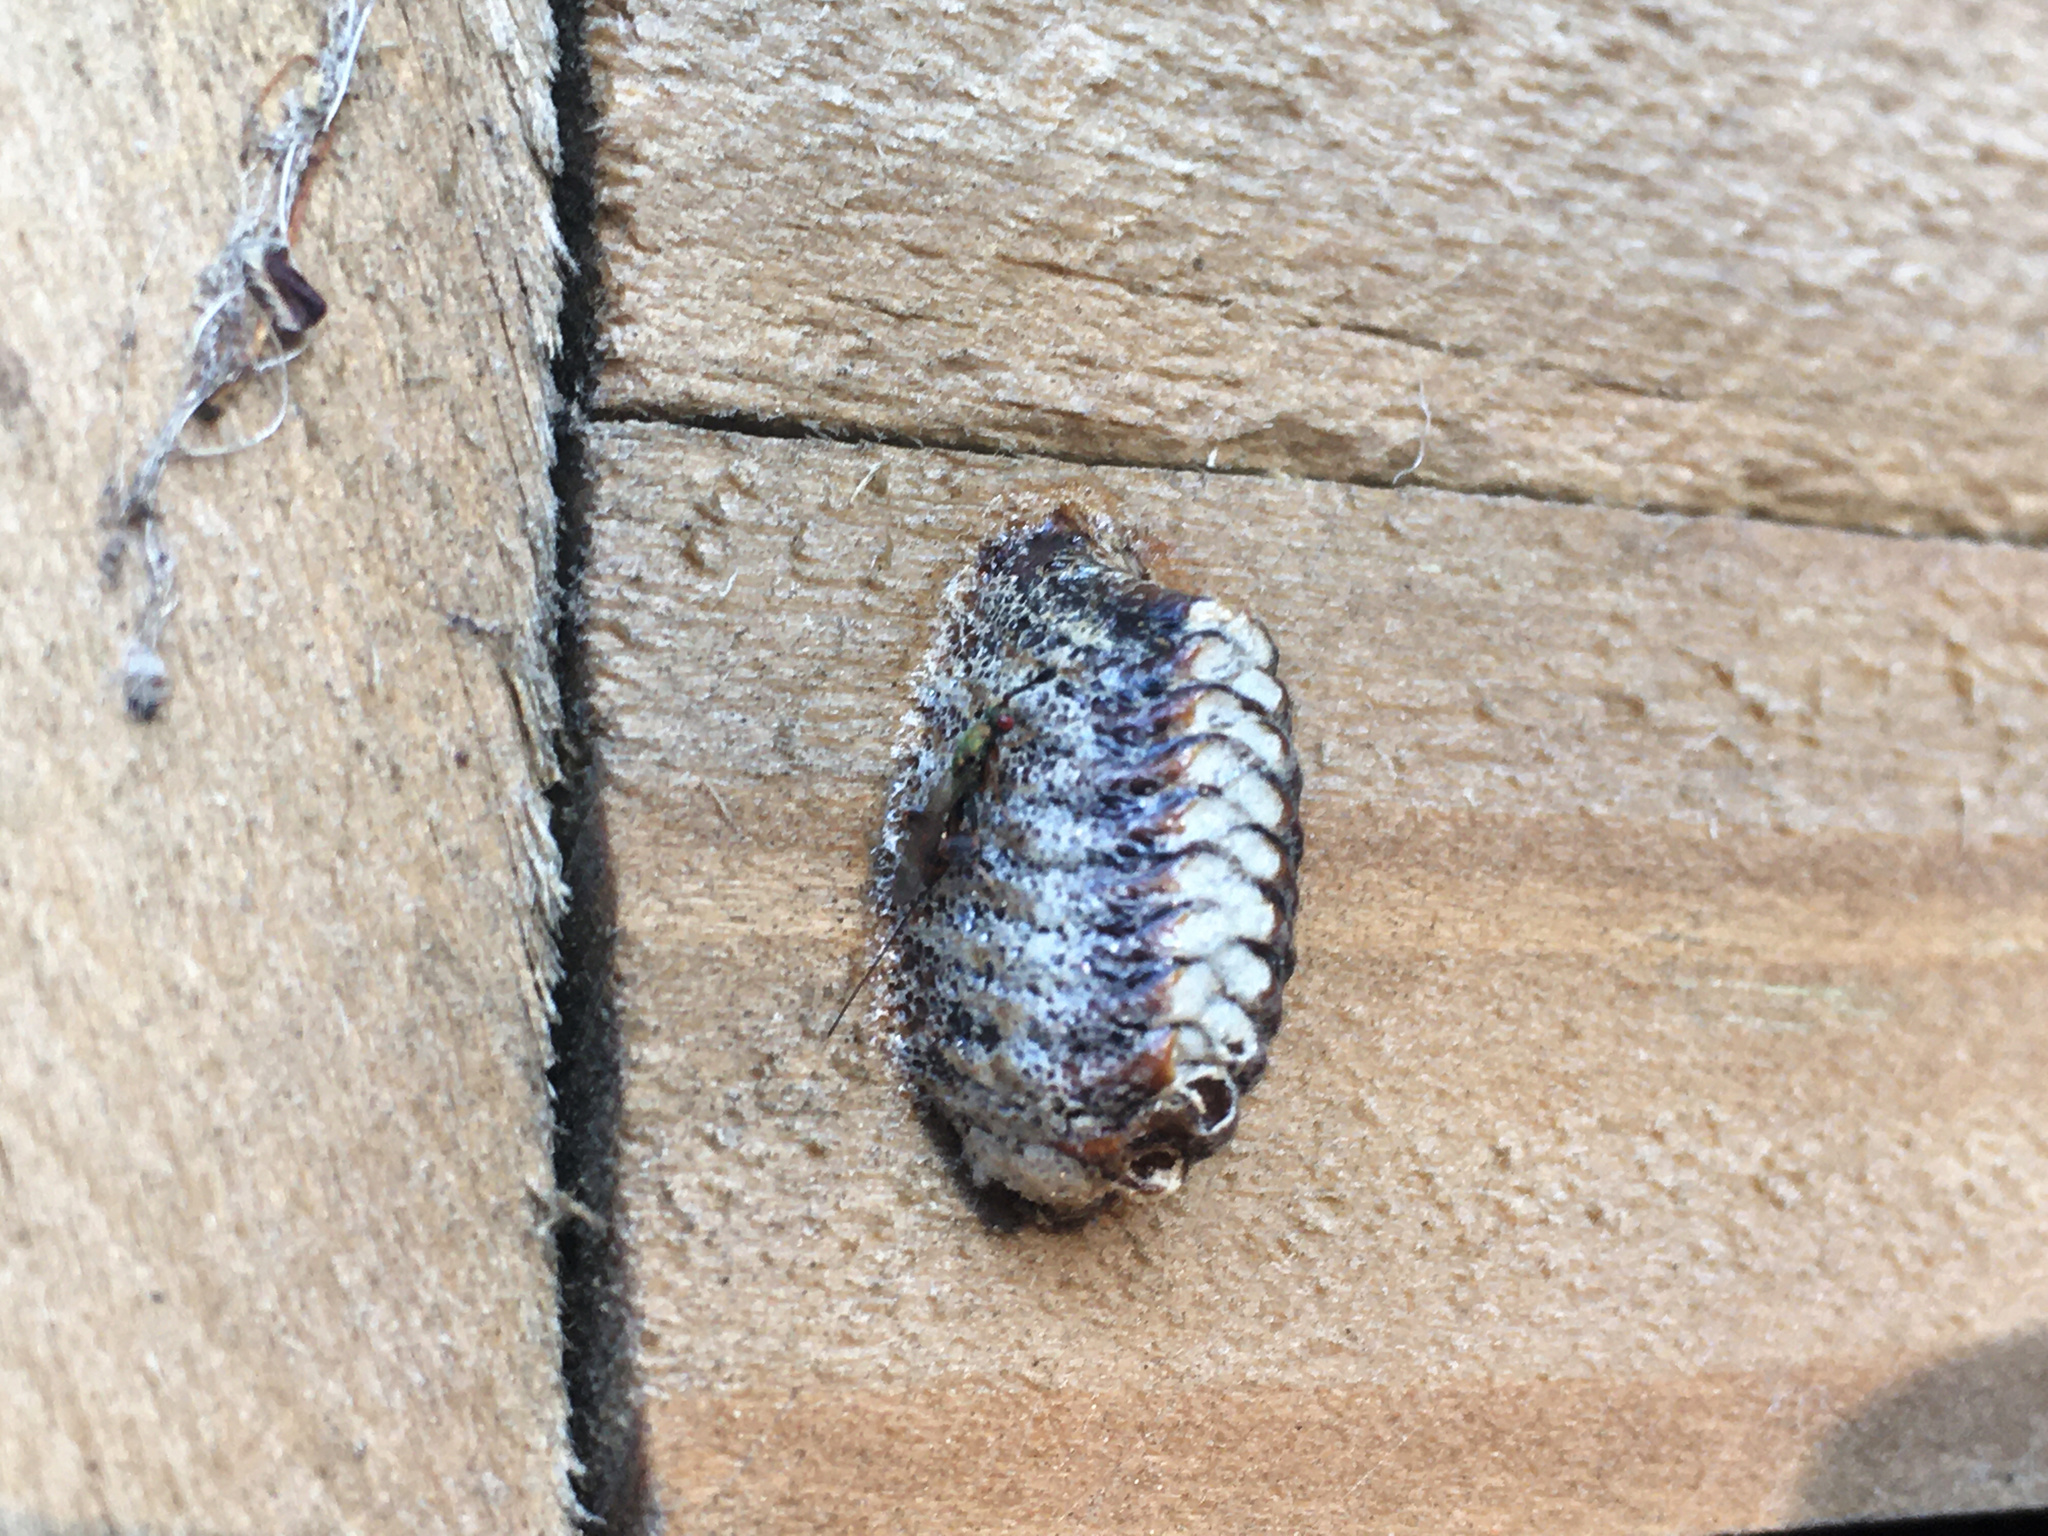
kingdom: Animalia
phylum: Arthropoda
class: Insecta
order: Mantodea
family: Mantidae
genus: Orthodera
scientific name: Orthodera novaezealandiae
